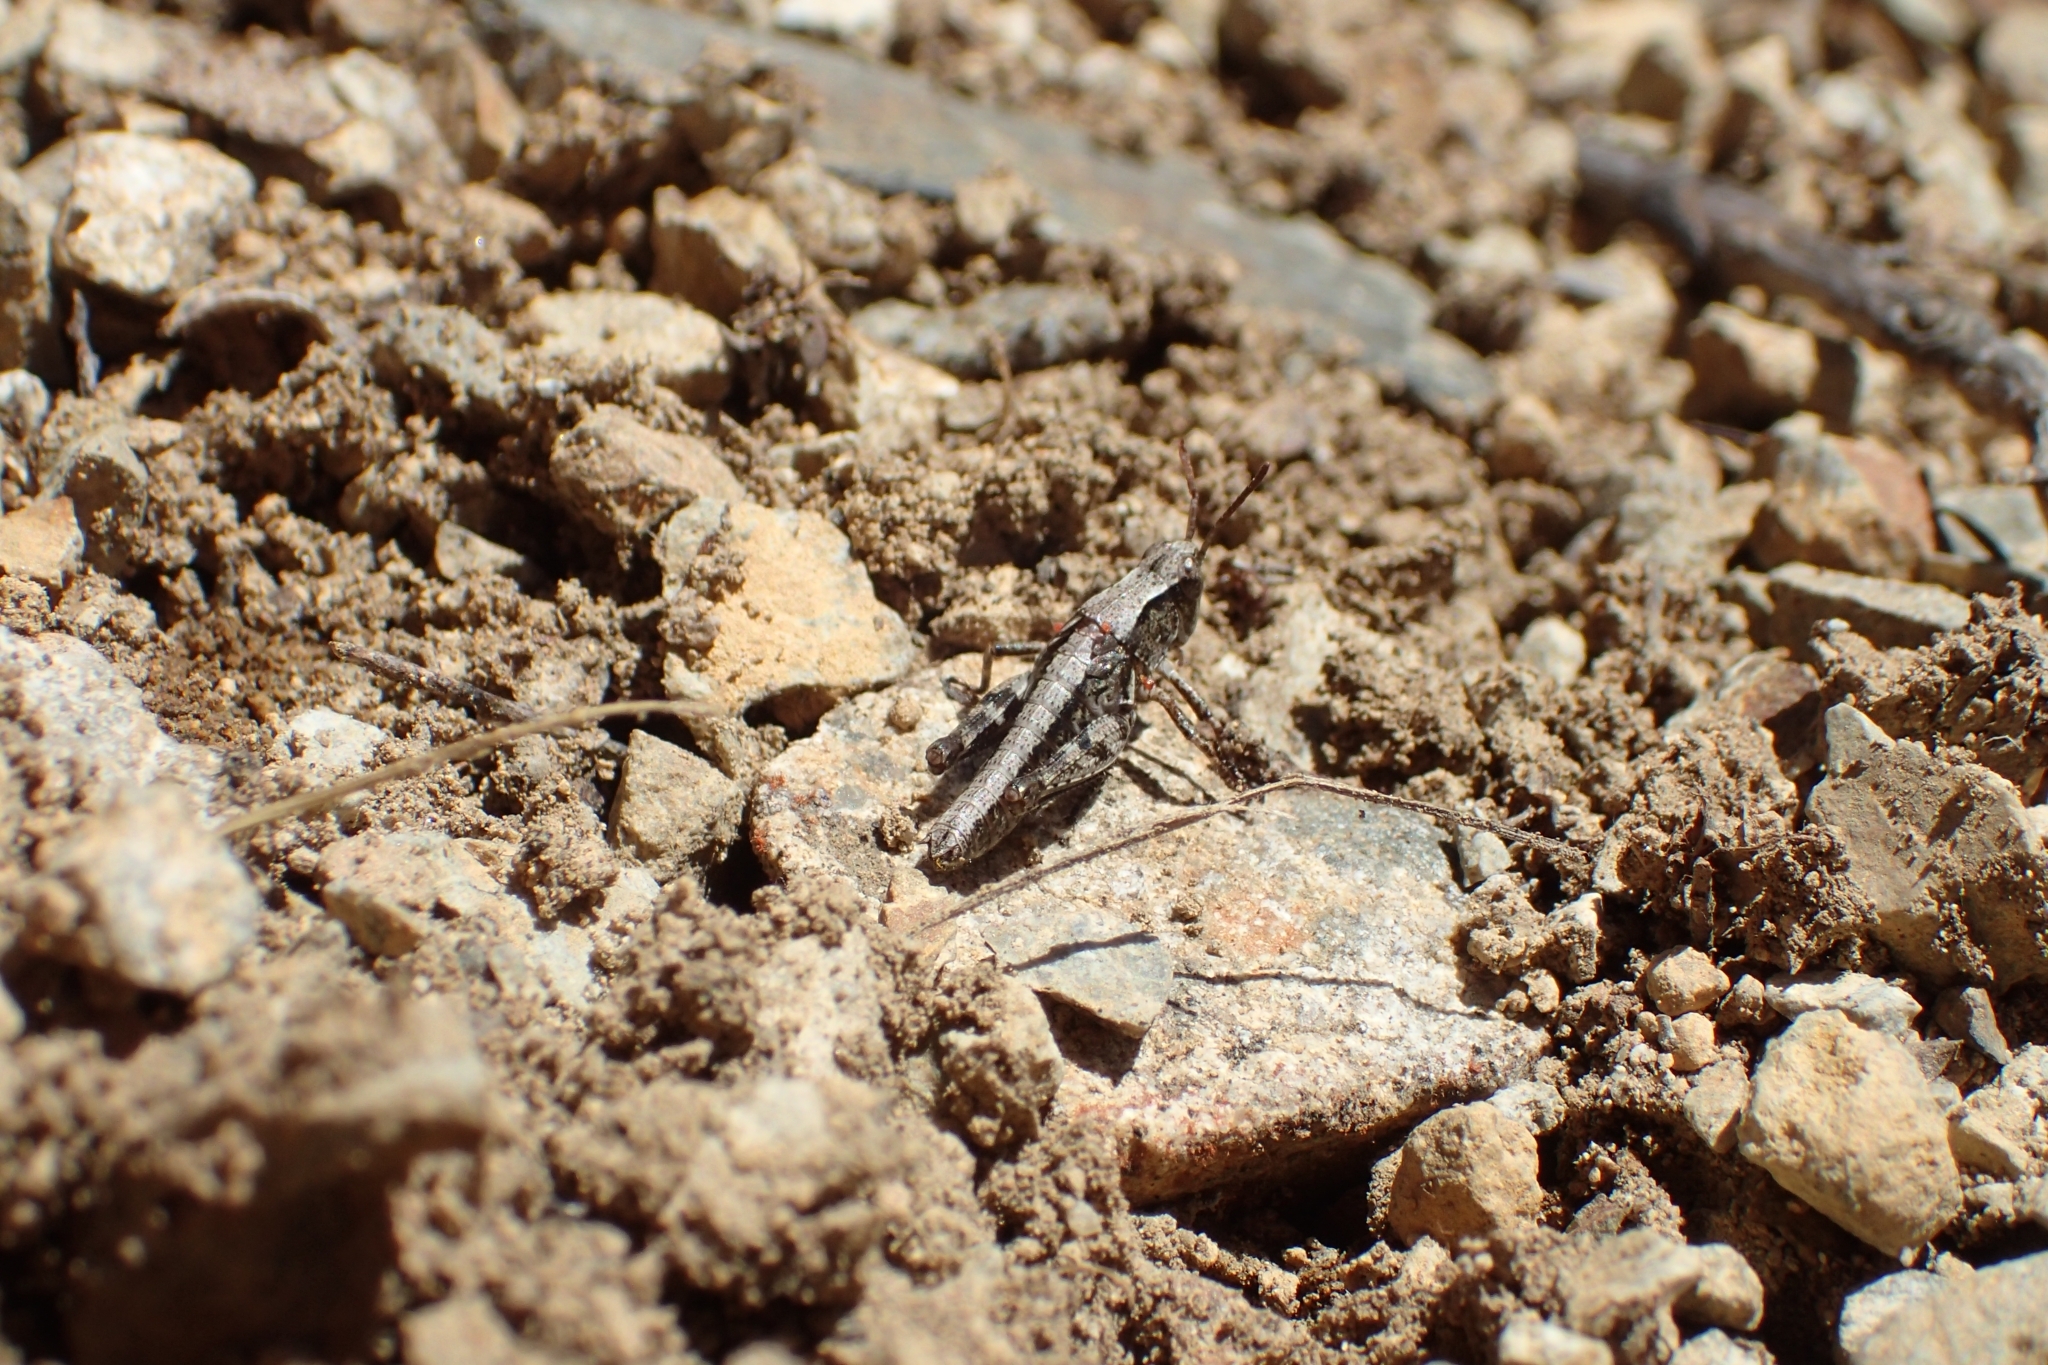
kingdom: Animalia
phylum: Arthropoda
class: Insecta
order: Orthoptera
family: Acrididae
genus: Phaulacridium
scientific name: Phaulacridium marginale
